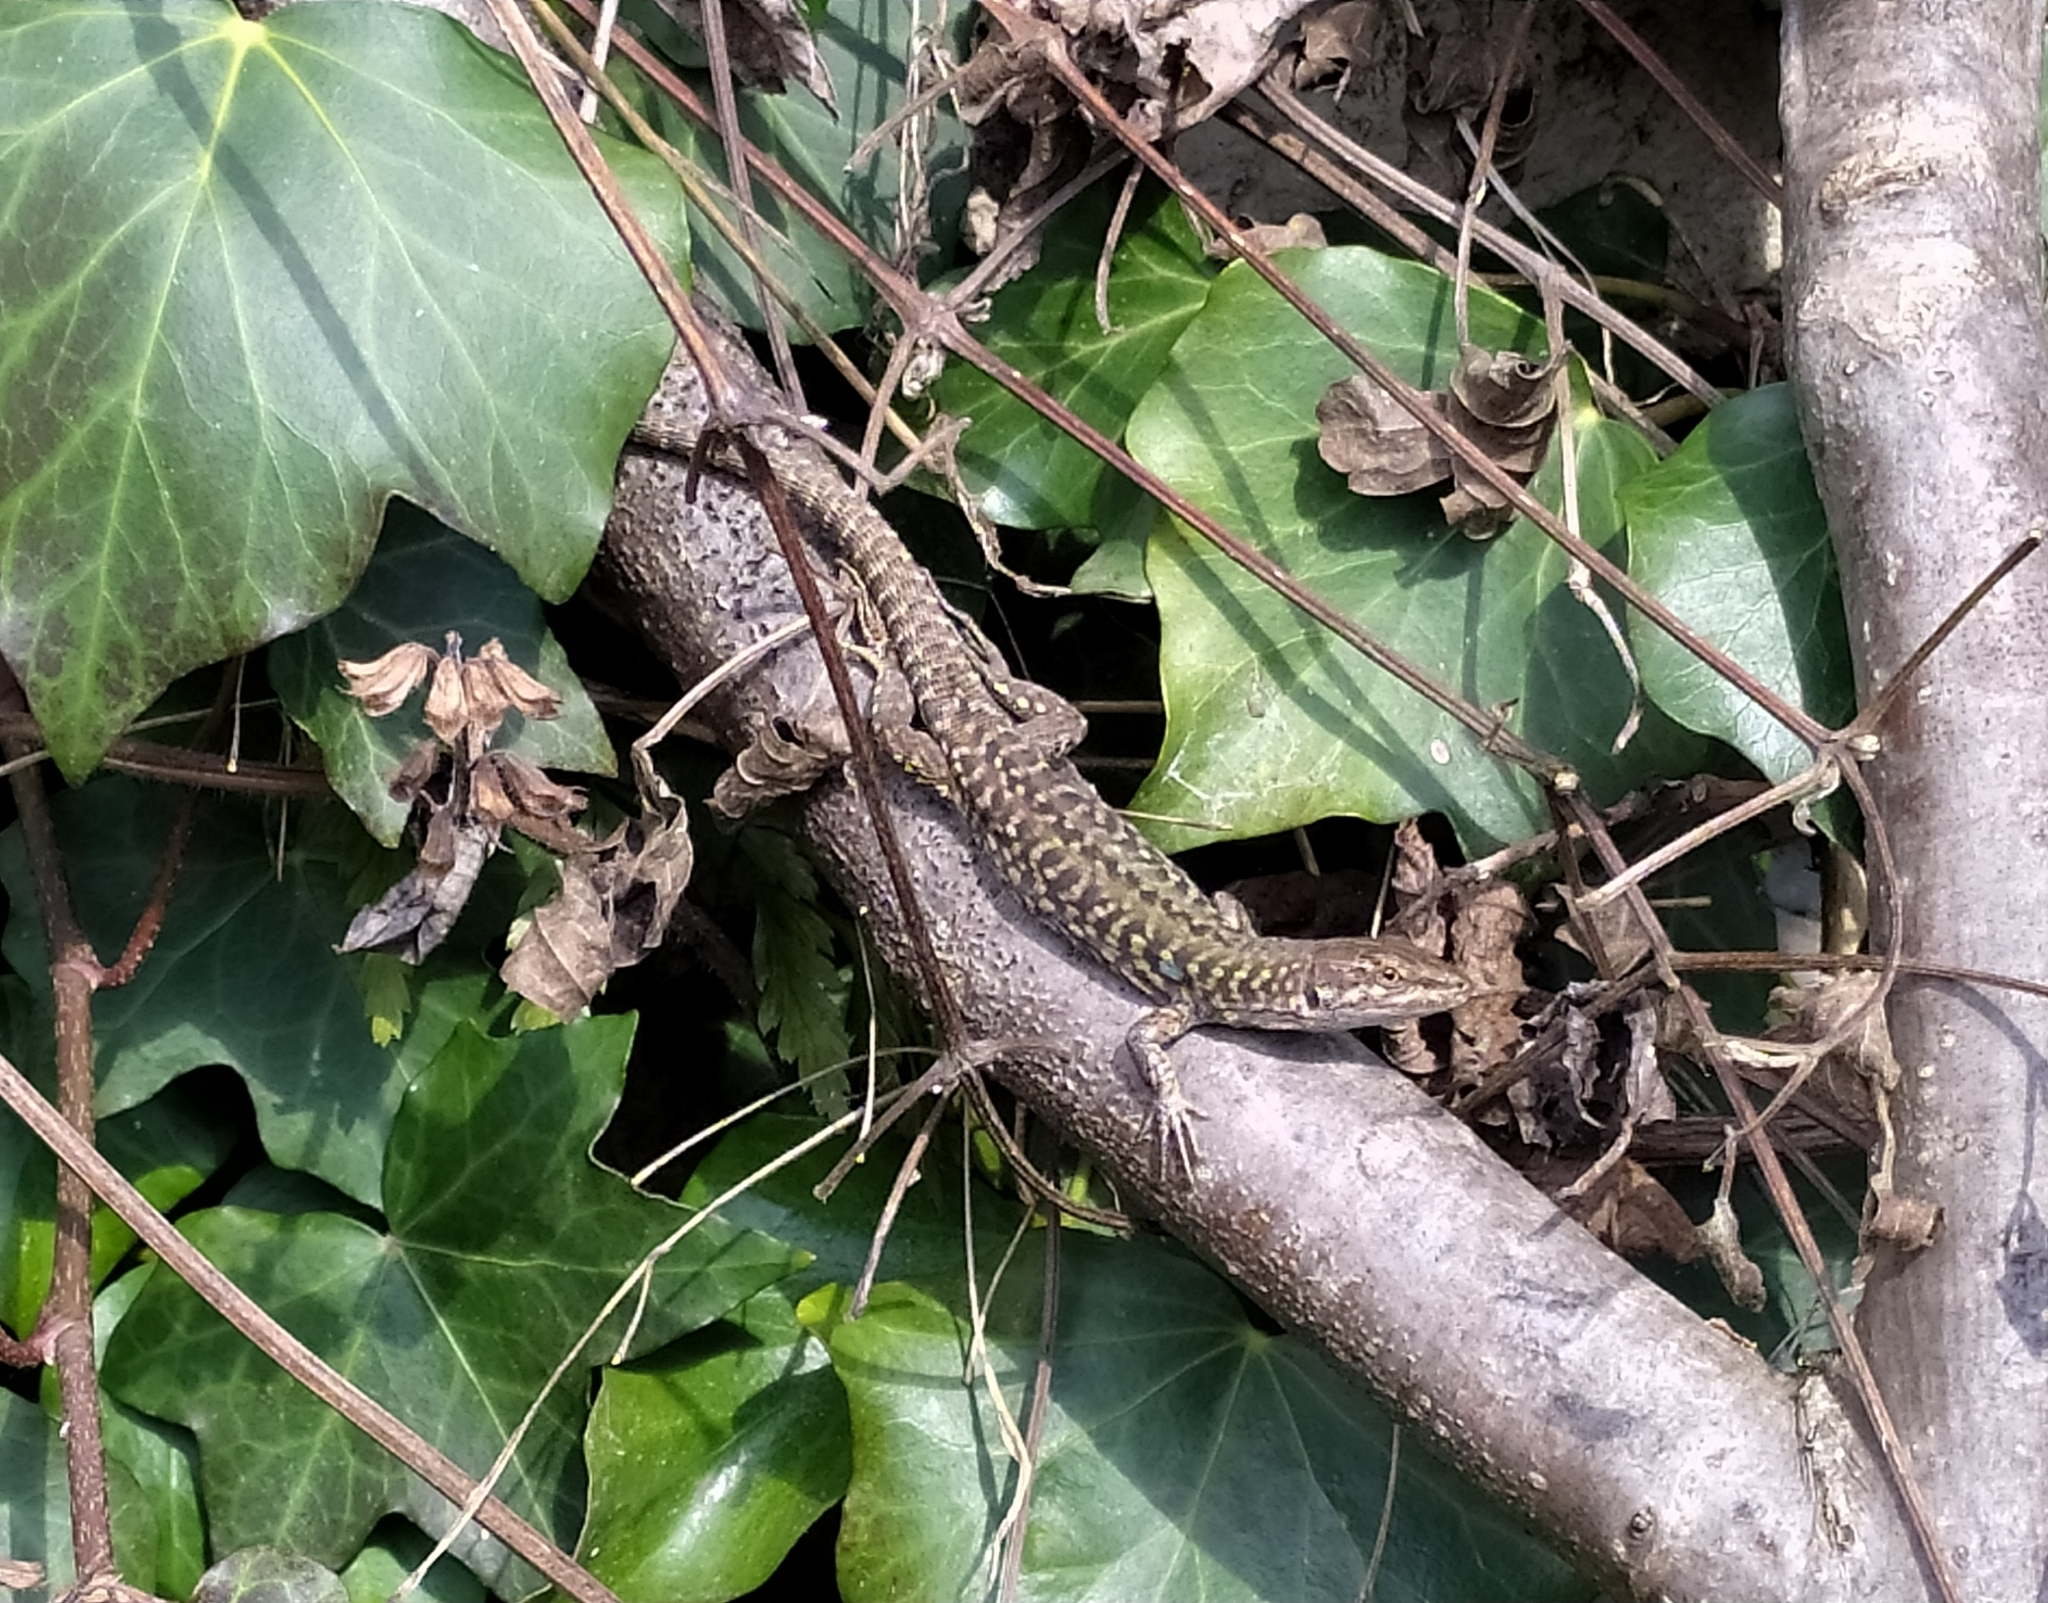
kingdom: Animalia
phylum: Chordata
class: Squamata
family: Lacertidae
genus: Podarcis
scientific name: Podarcis siculus
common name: Italian wall lizard
